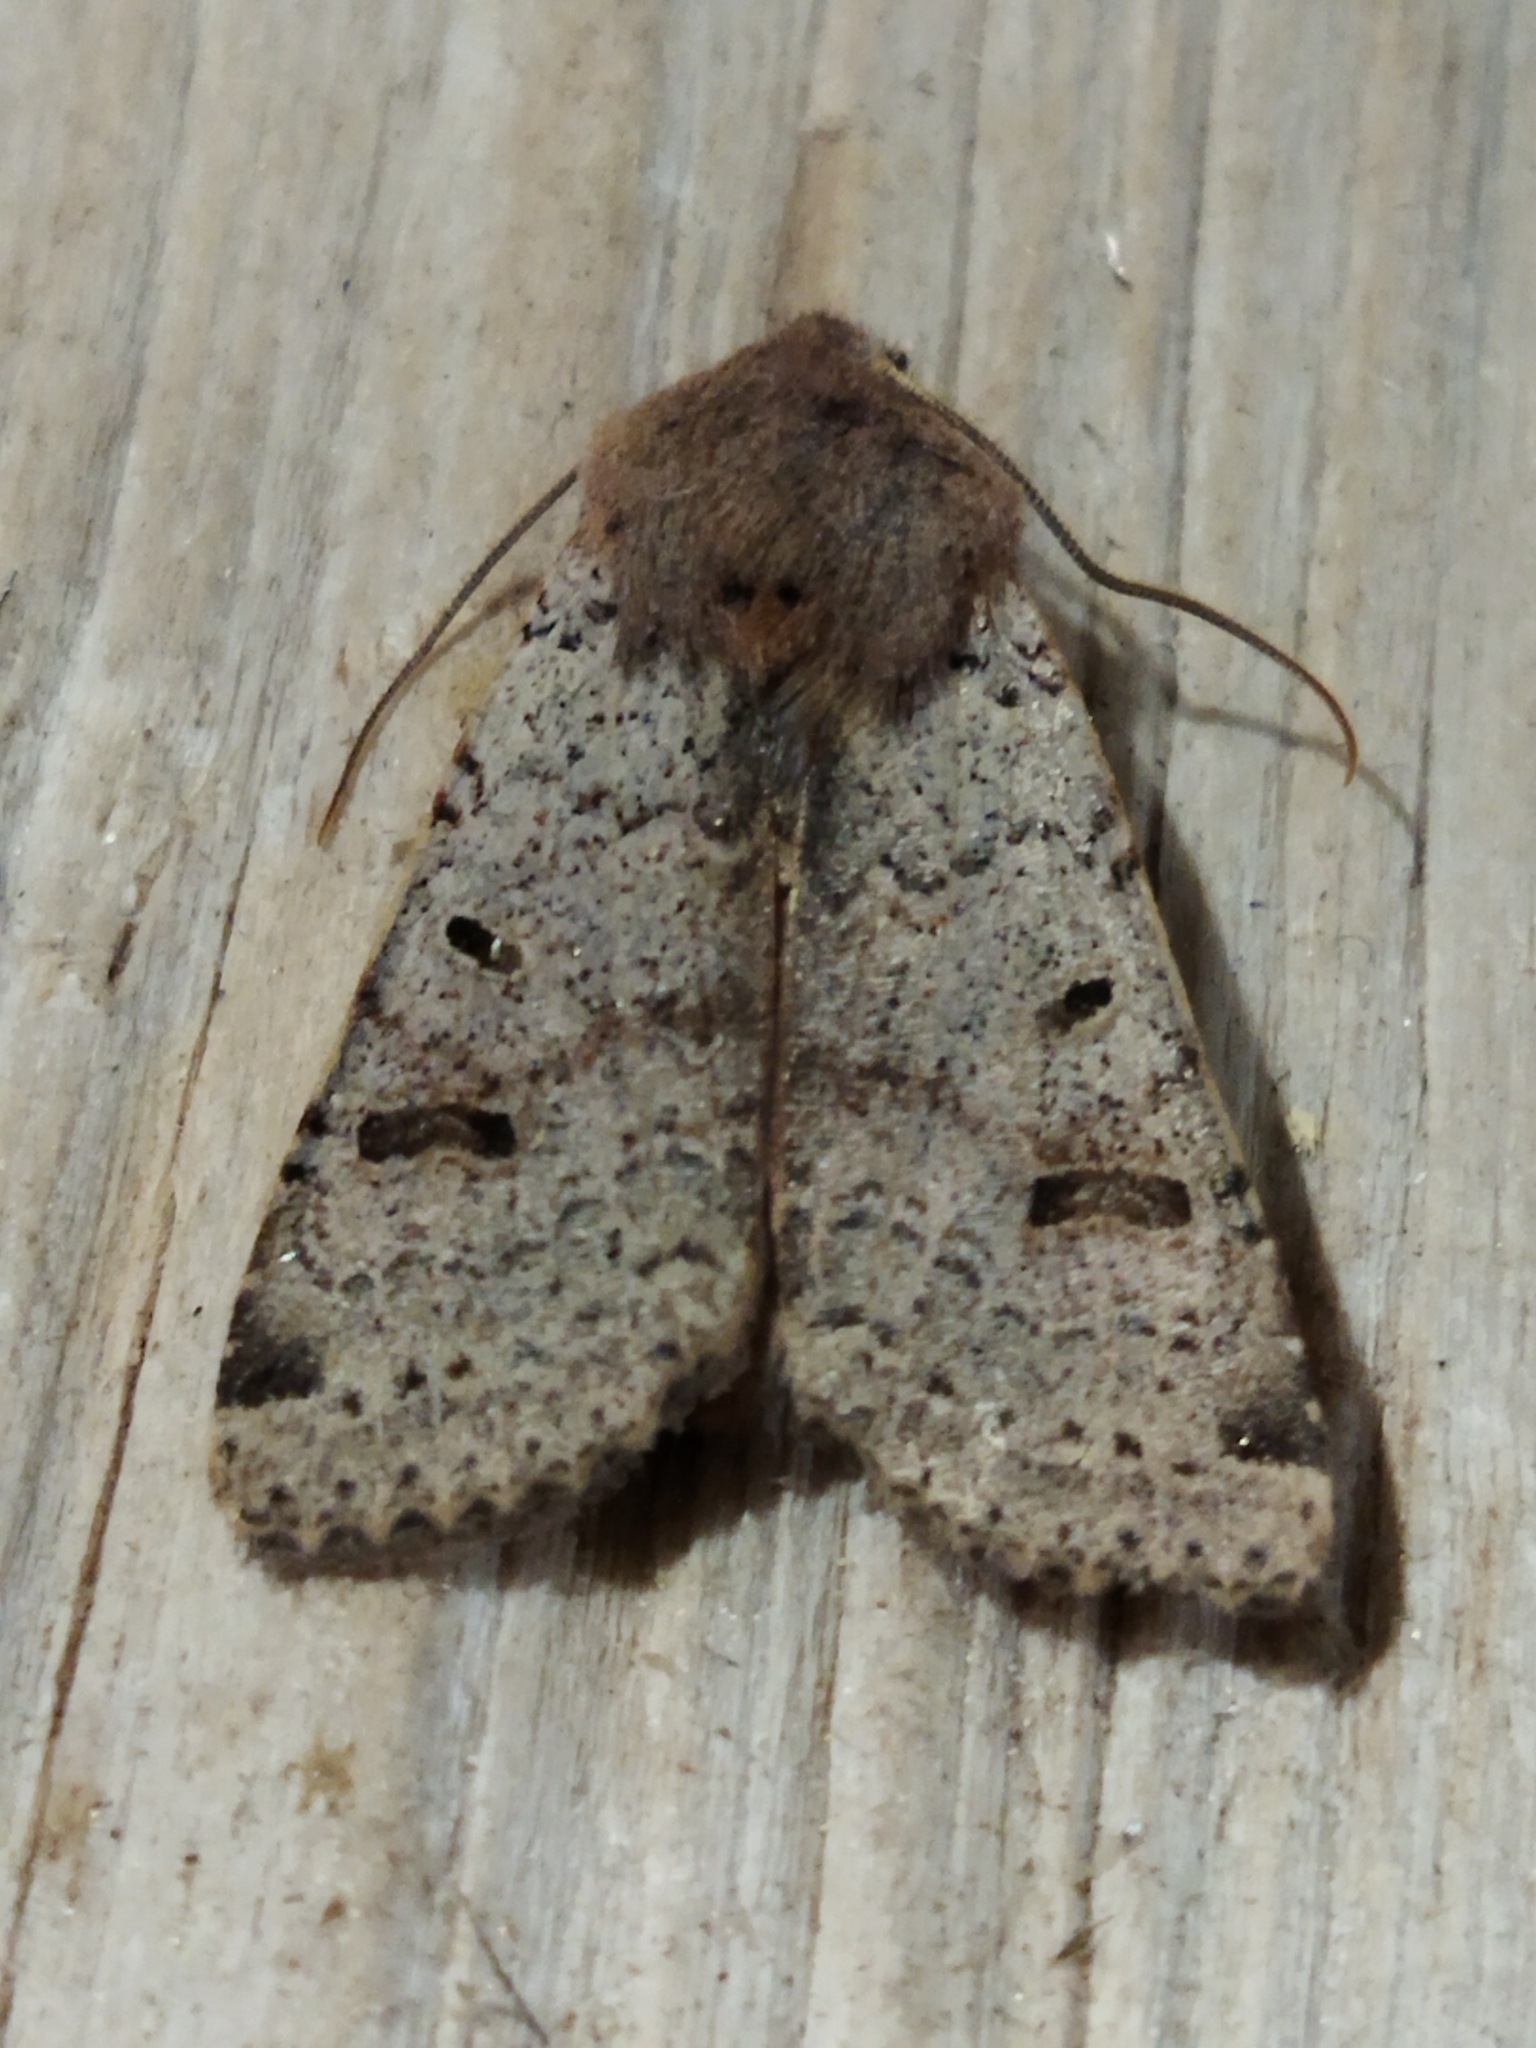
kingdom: Animalia
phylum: Arthropoda
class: Insecta
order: Lepidoptera
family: Noctuidae
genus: Agrochola
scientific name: Agrochola lychnidis
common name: Beaded chestnut
